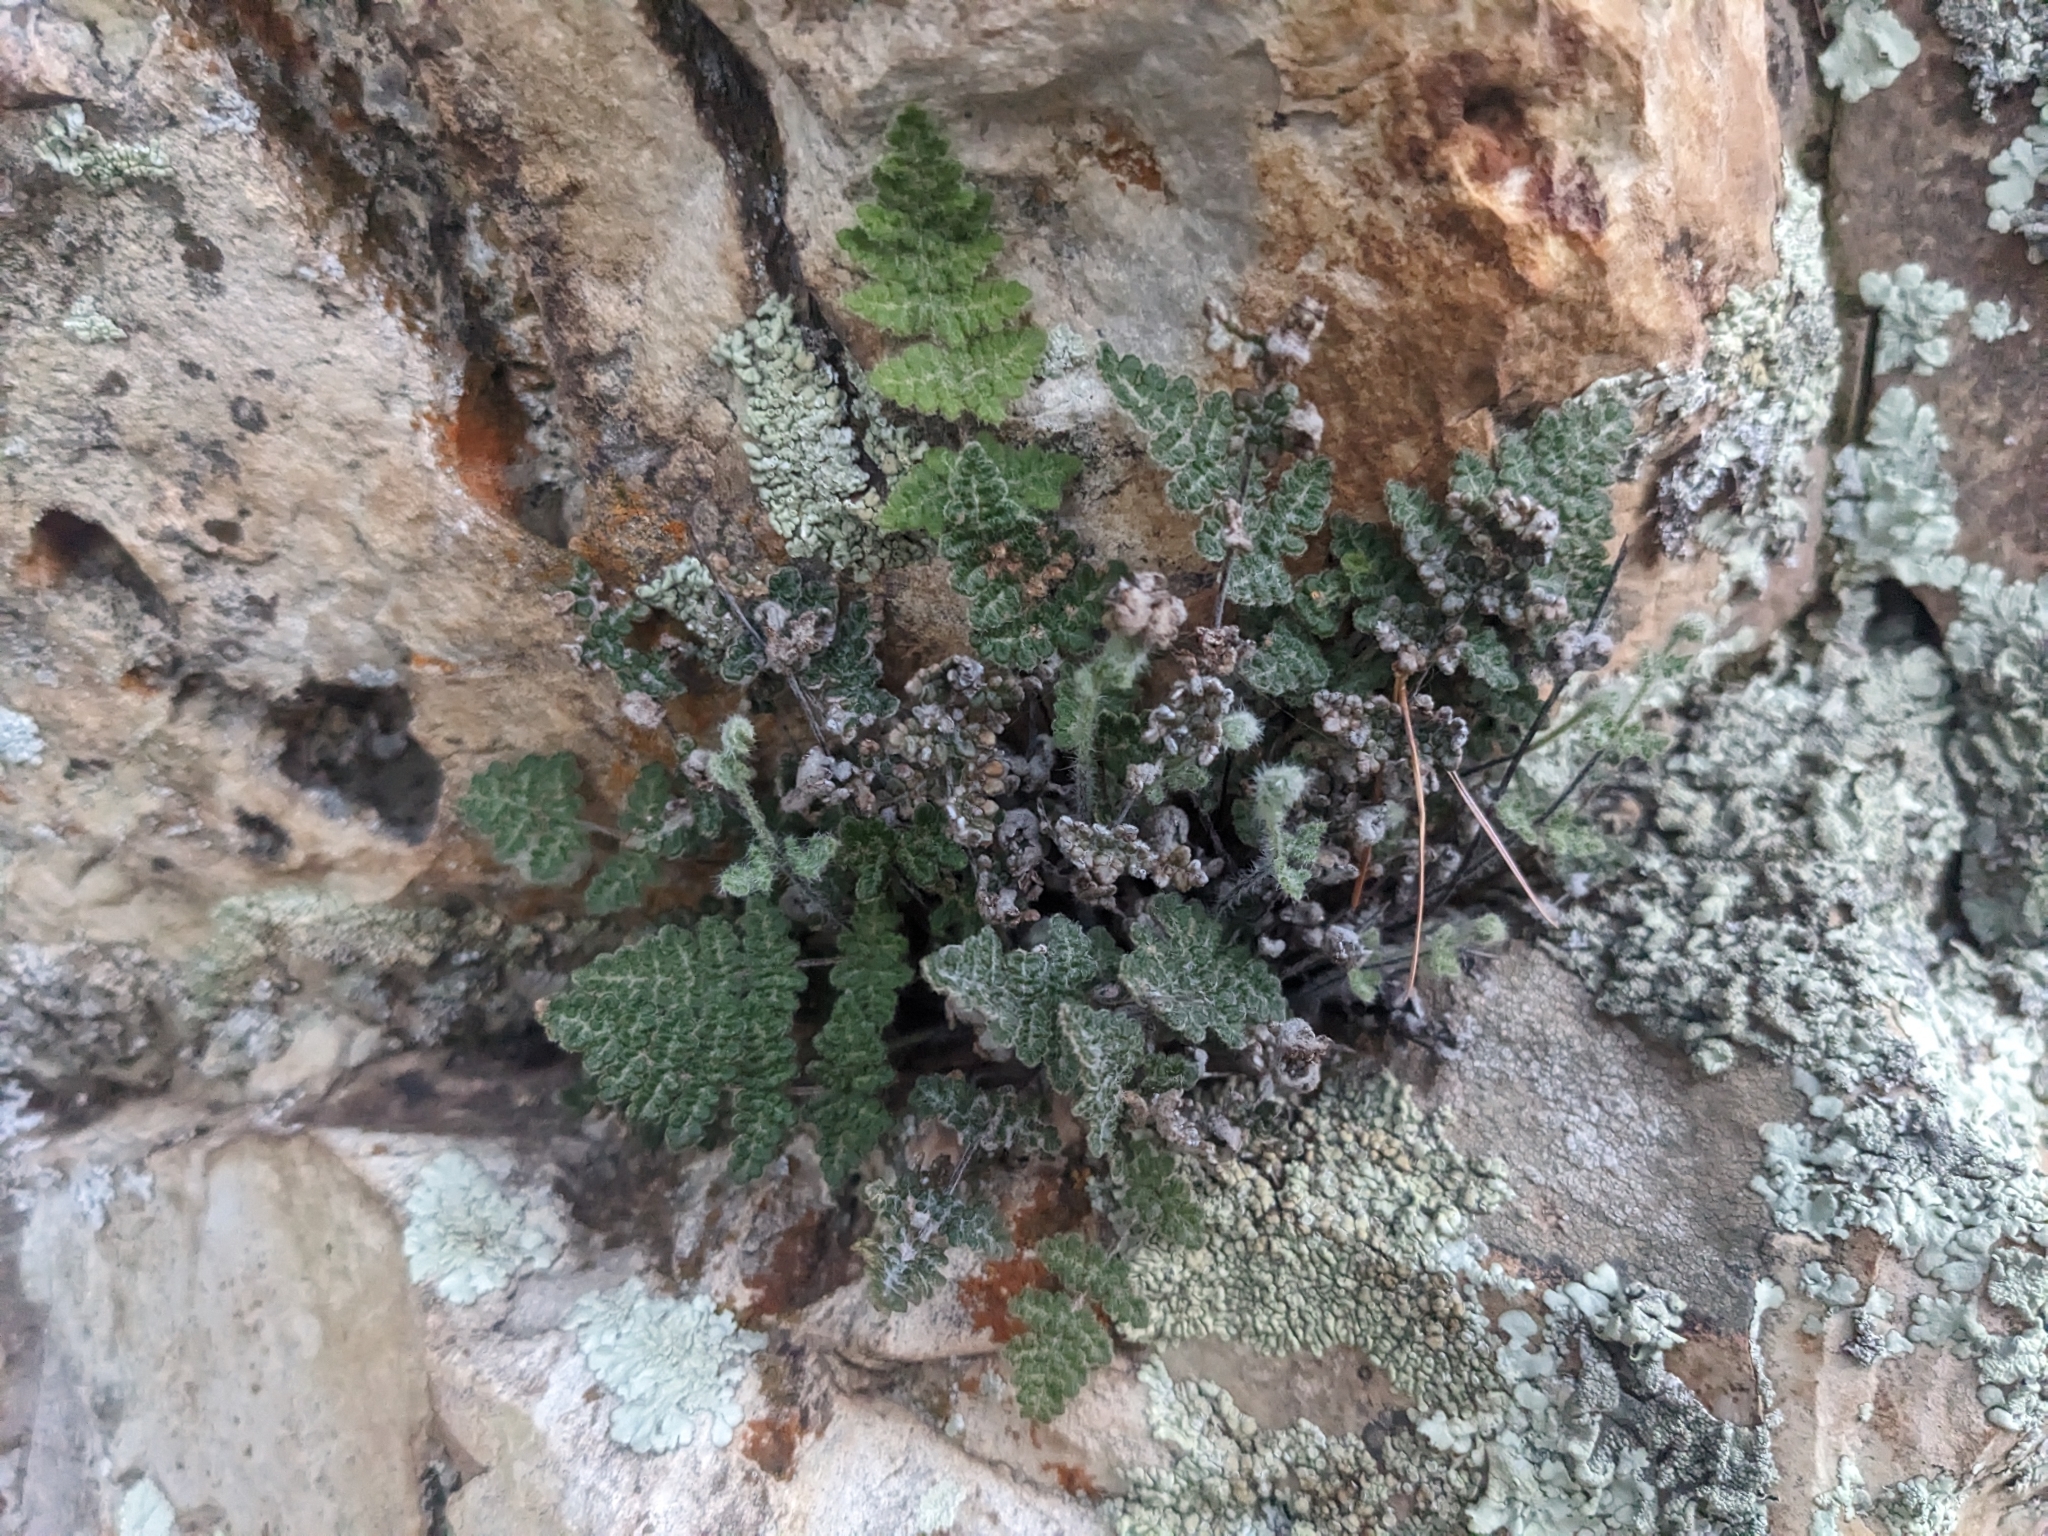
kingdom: Plantae
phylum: Tracheophyta
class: Polypodiopsida
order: Polypodiales
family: Pteridaceae
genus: Myriopteris
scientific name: Myriopteris gracilis
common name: Fee's lip fern
